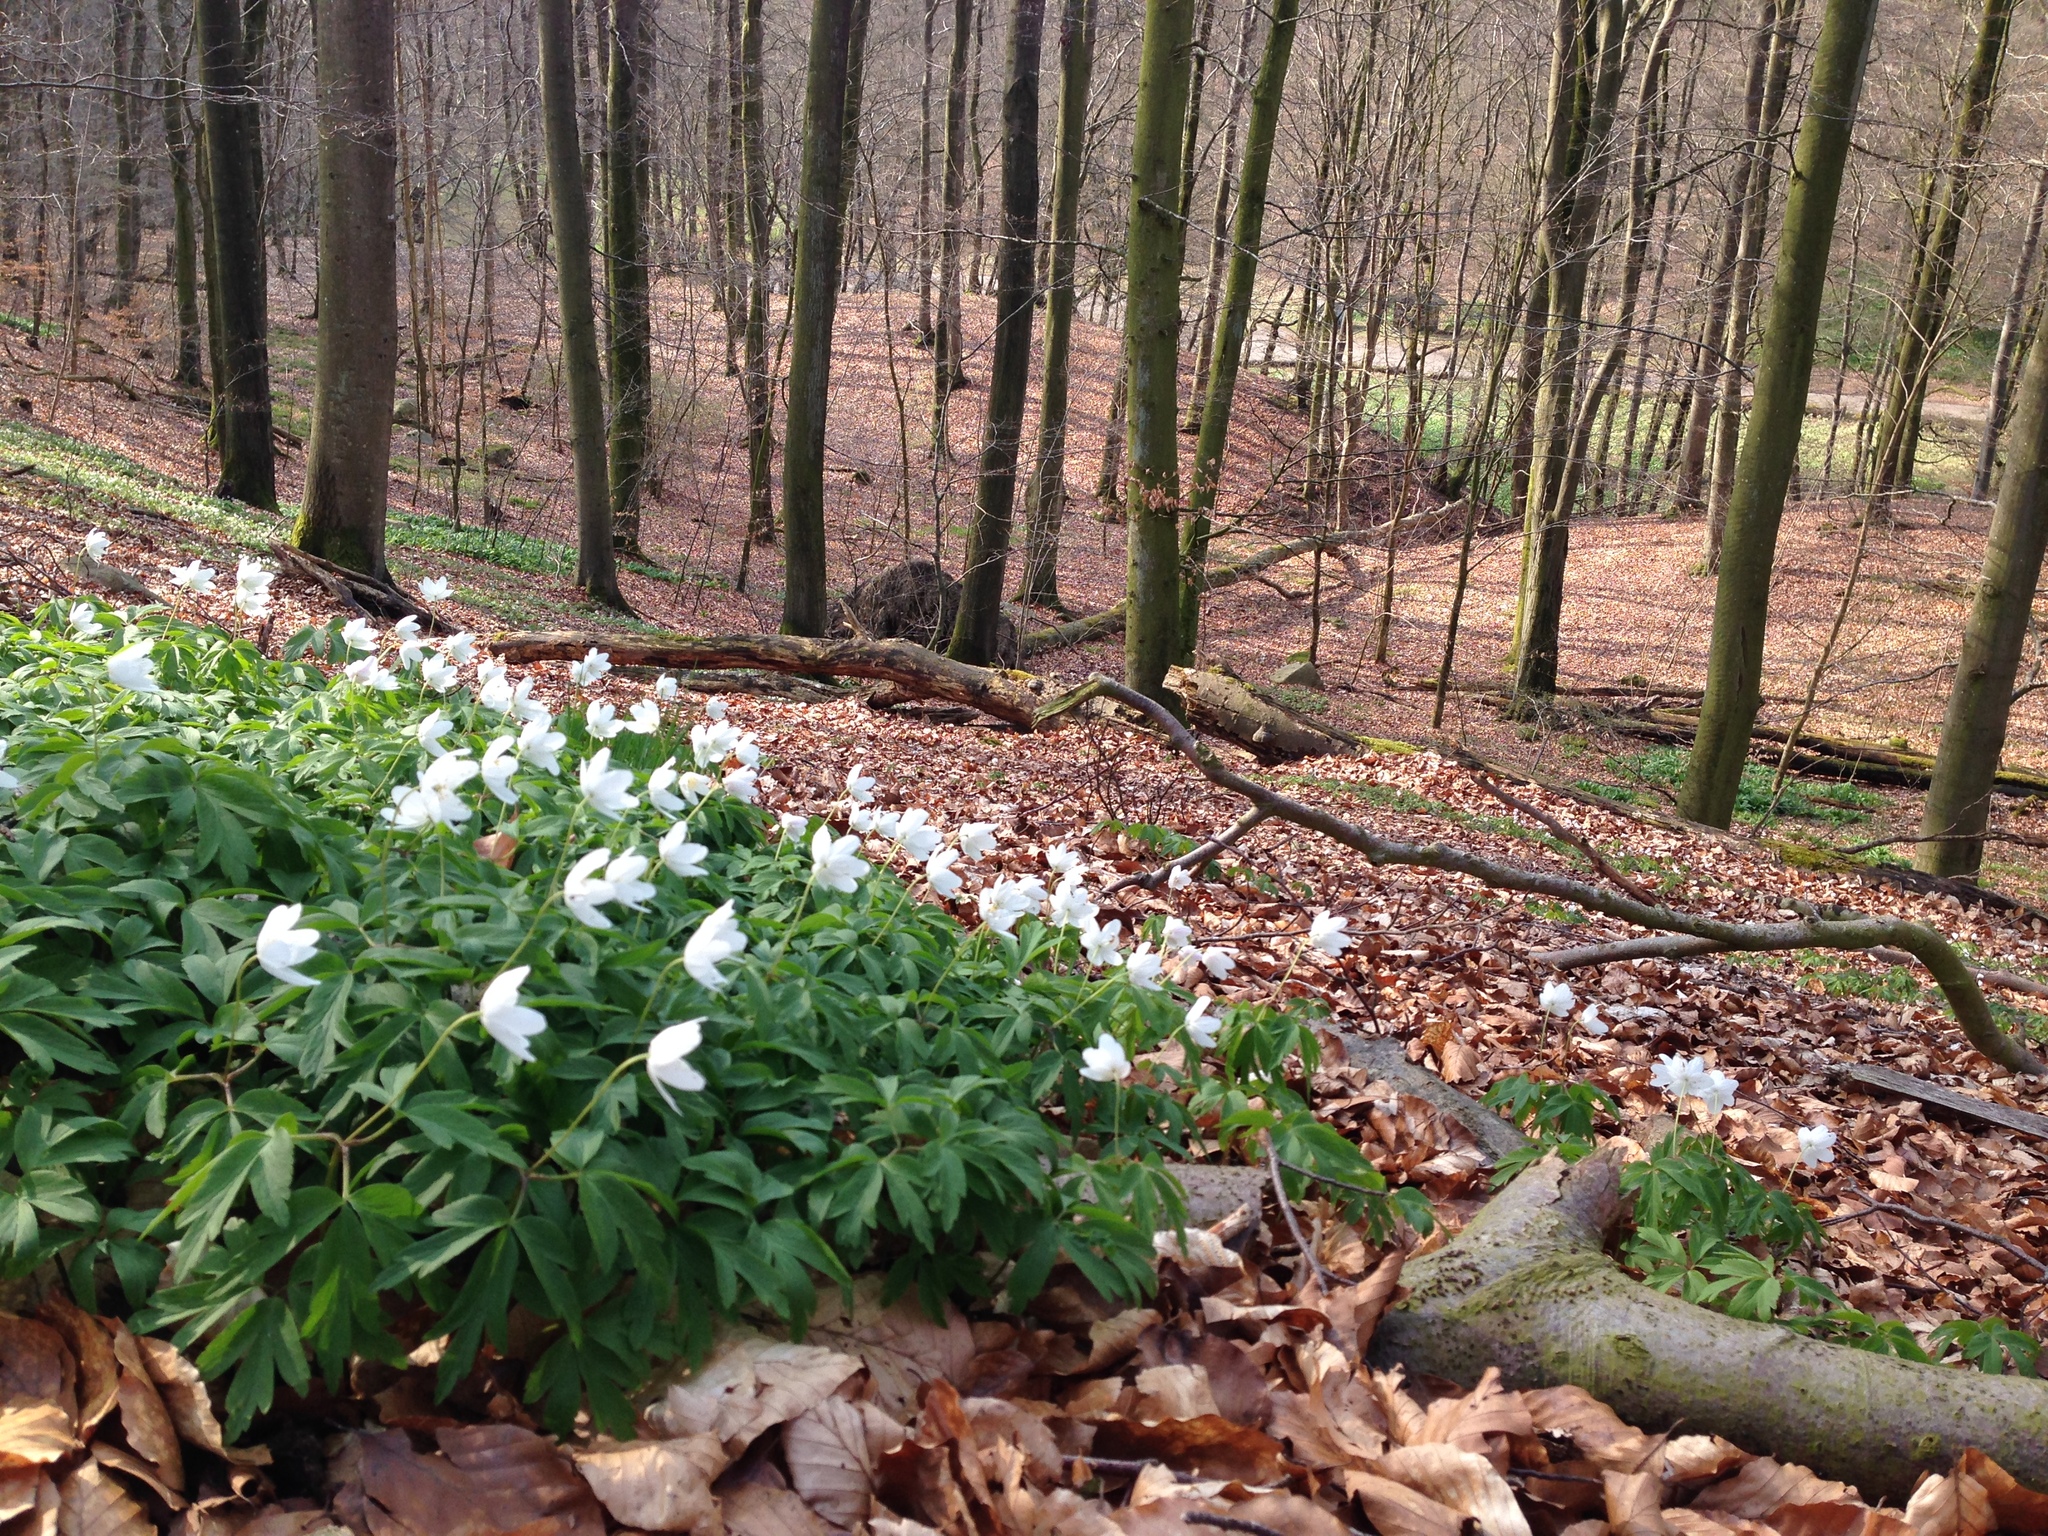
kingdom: Plantae
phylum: Tracheophyta
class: Magnoliopsida
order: Ranunculales
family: Ranunculaceae
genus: Anemone
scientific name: Anemone nemorosa
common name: Wood anemone
